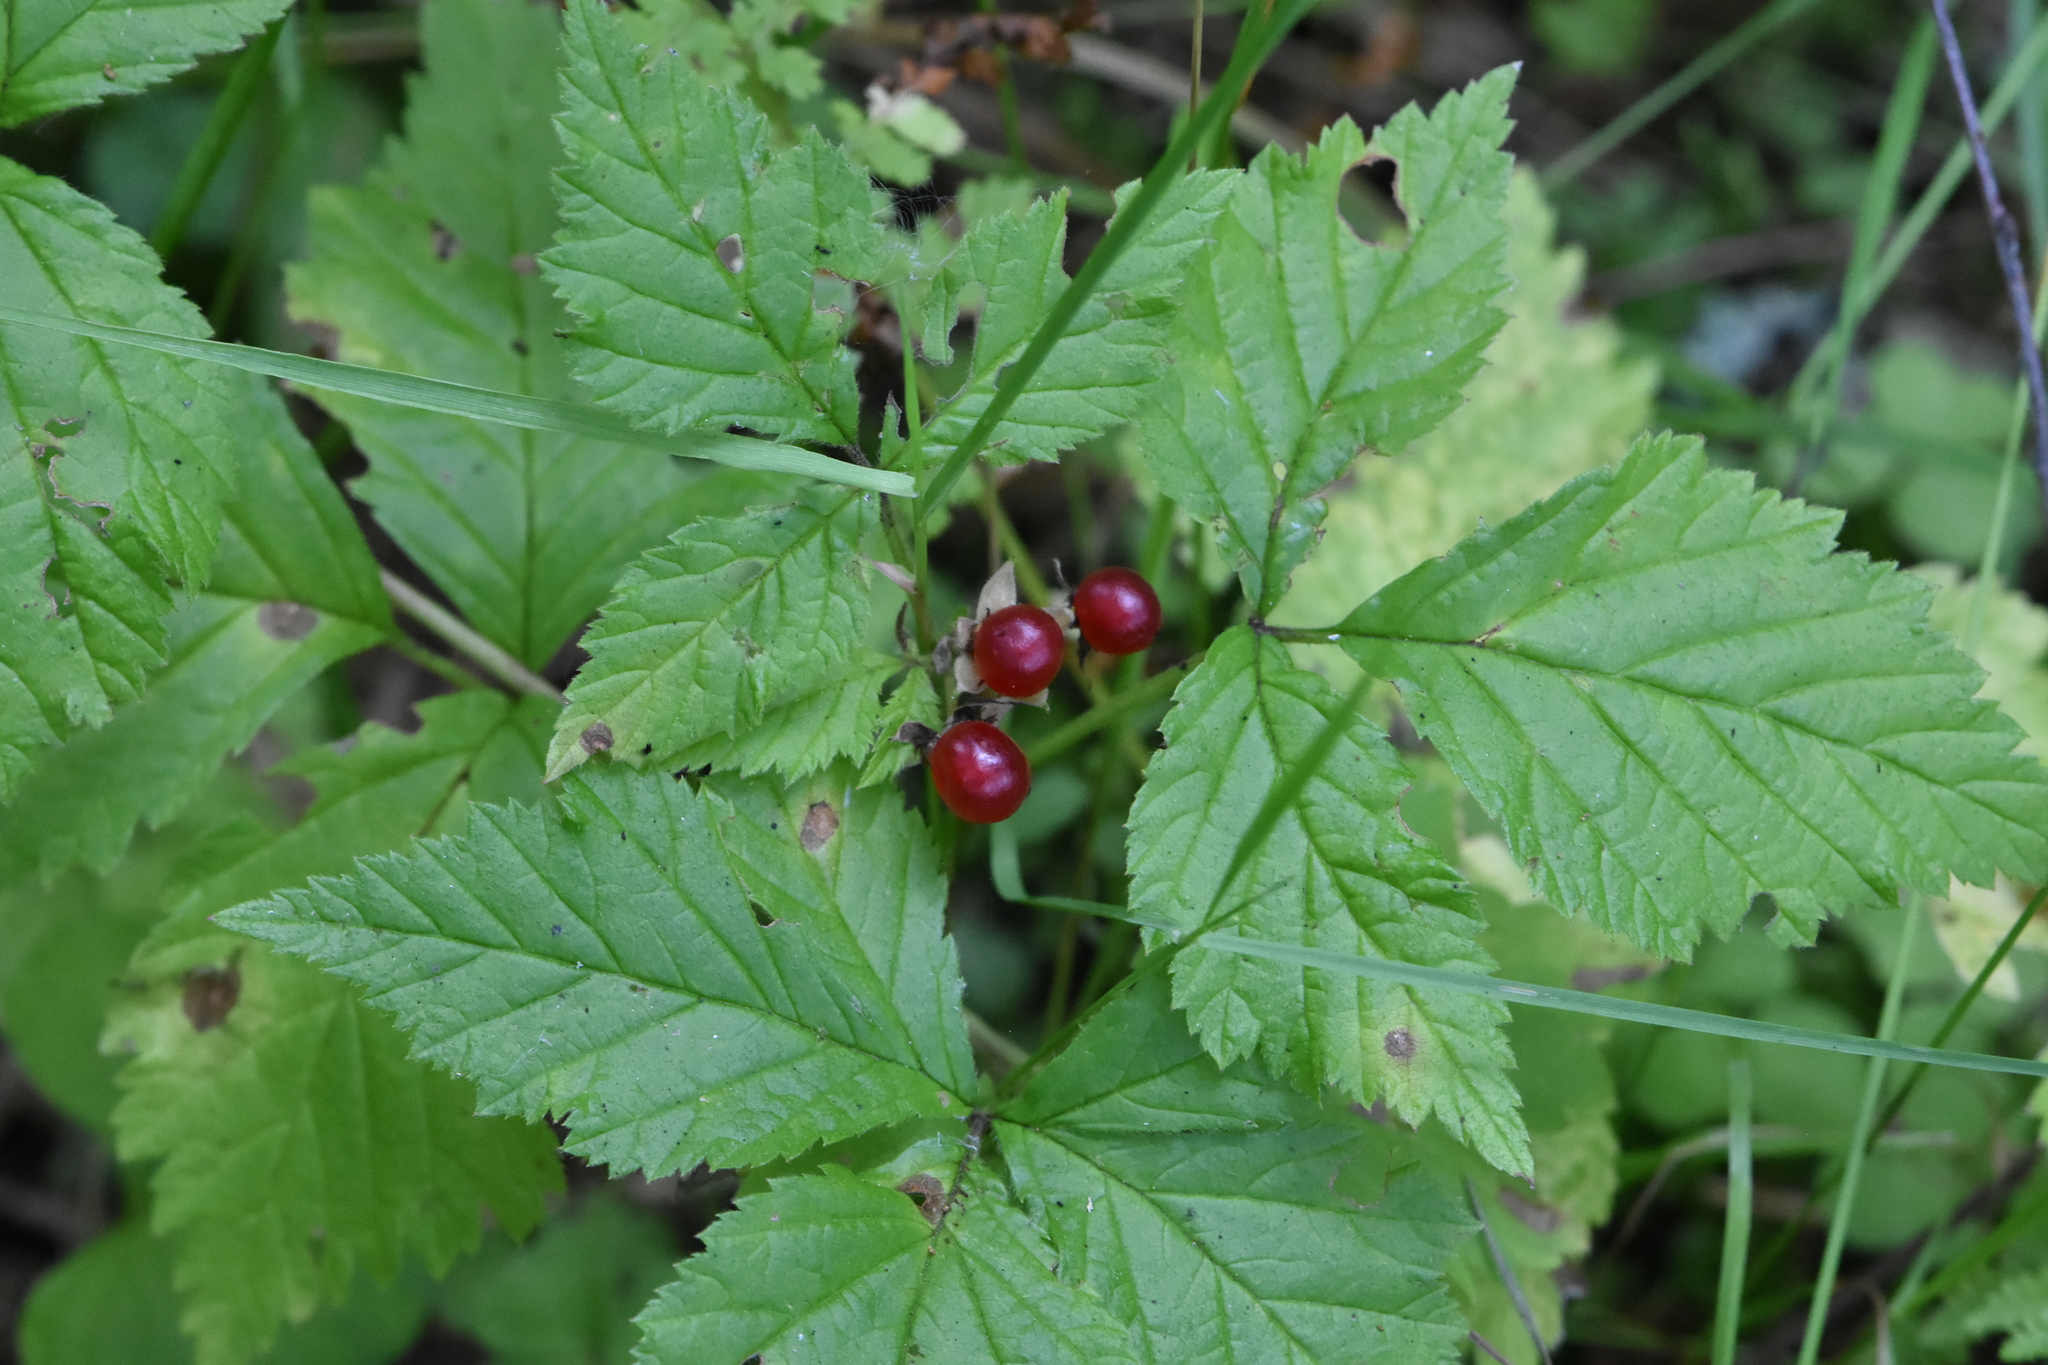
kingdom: Plantae
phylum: Tracheophyta
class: Magnoliopsida
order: Rosales
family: Rosaceae
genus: Rubus
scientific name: Rubus saxatilis
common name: Stone bramble
